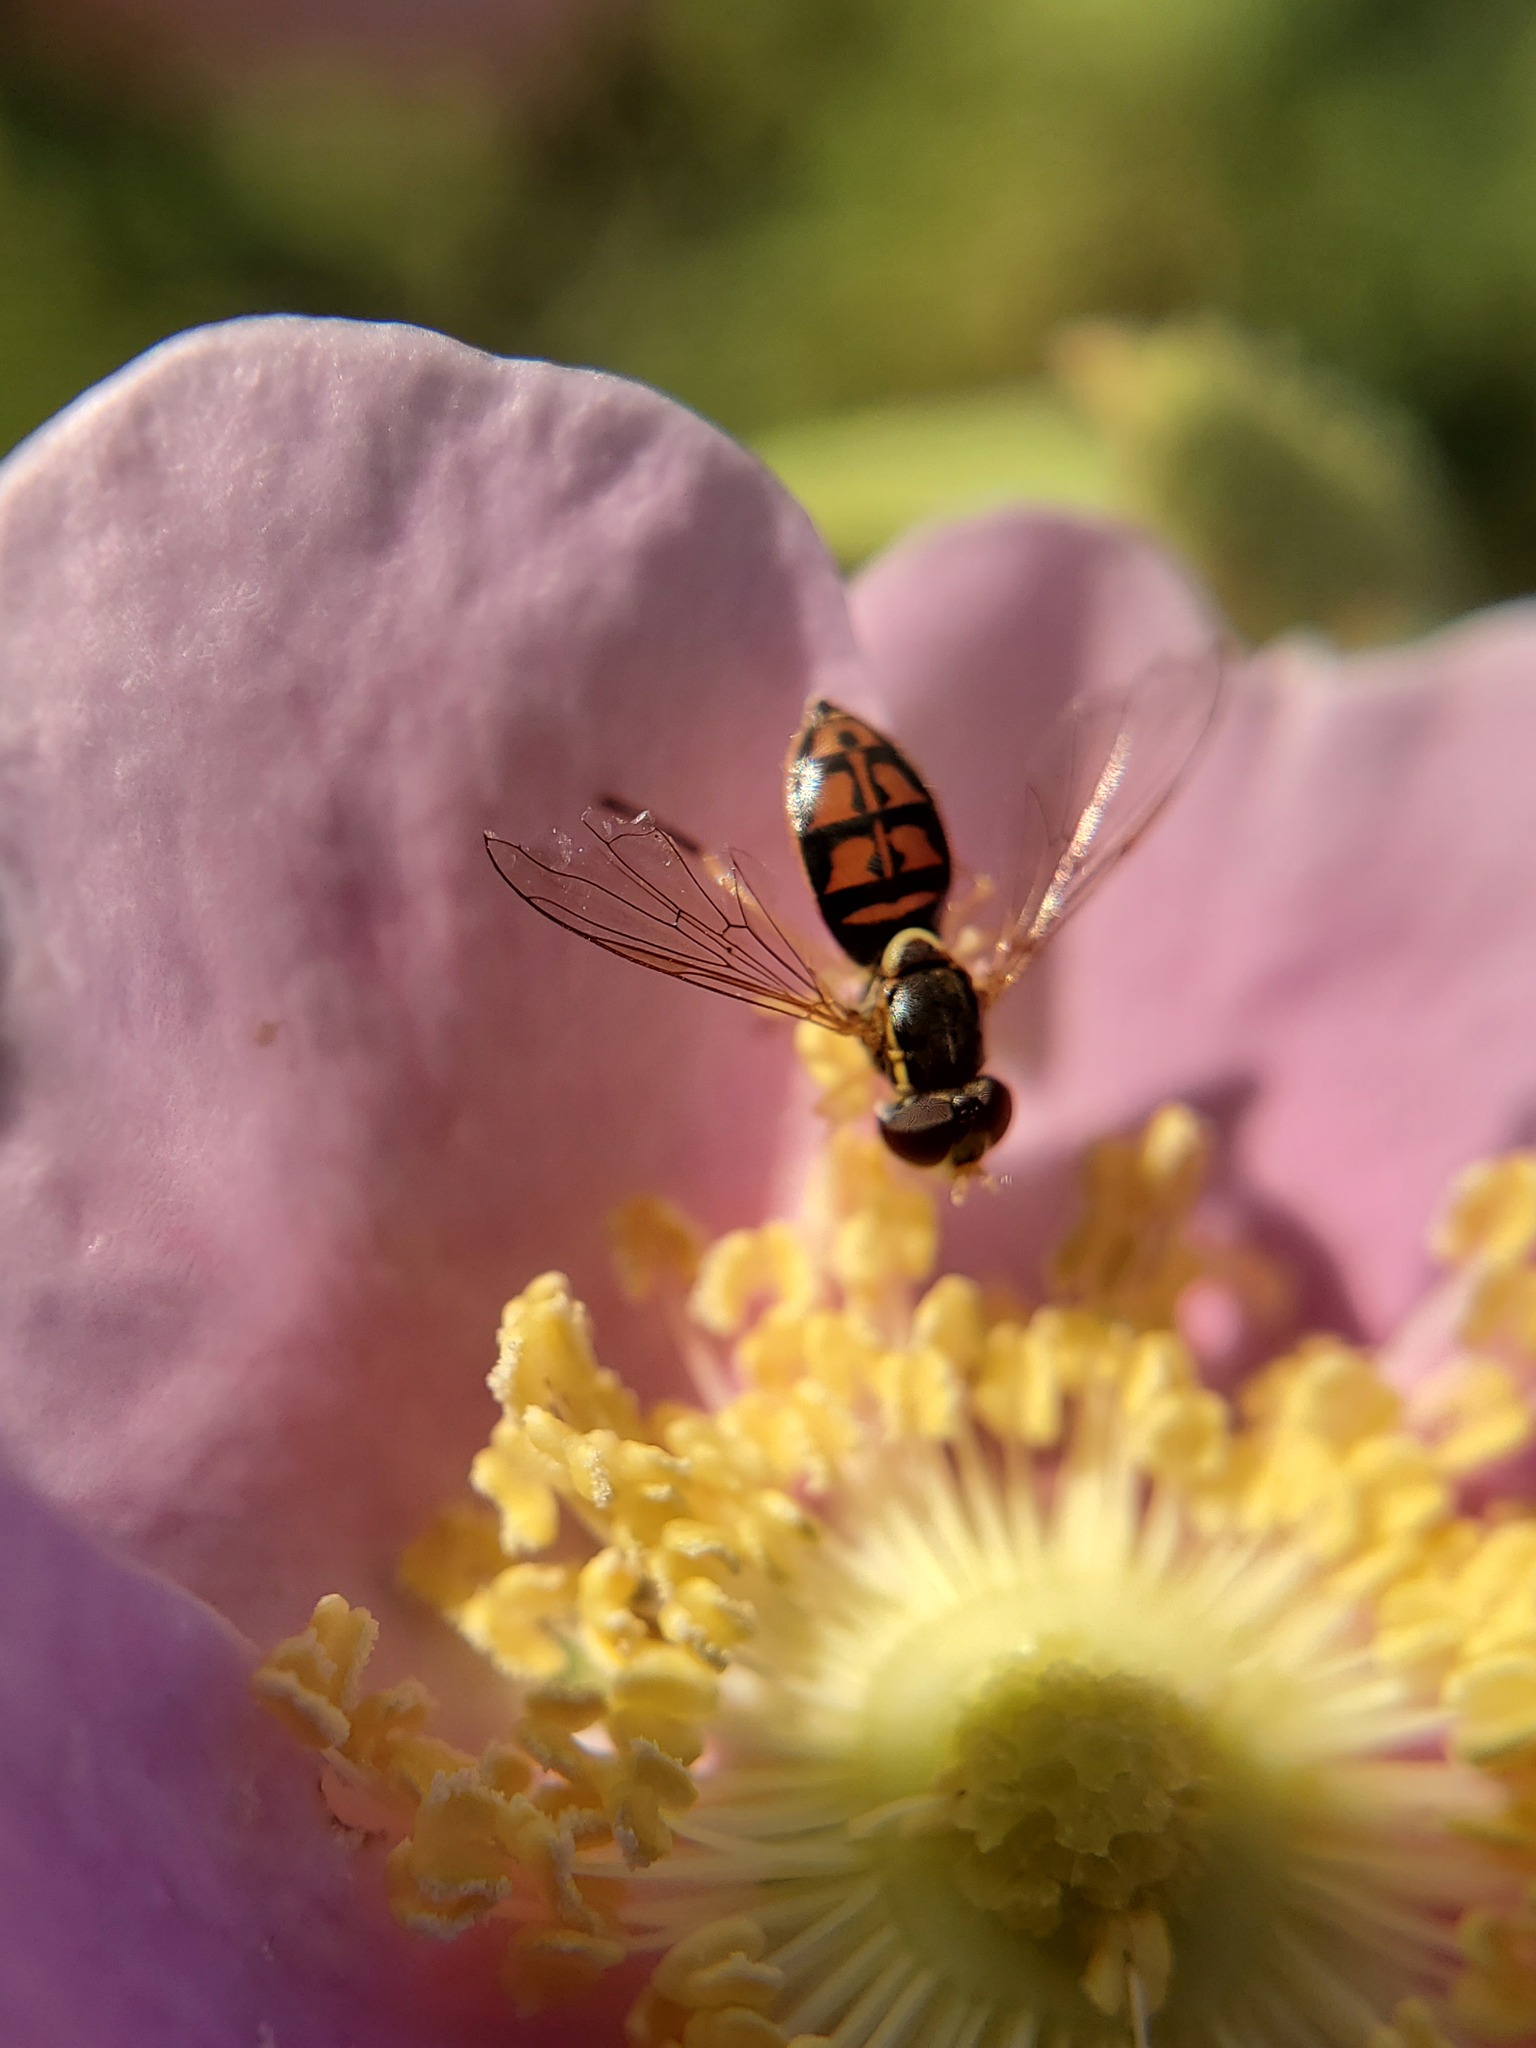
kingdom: Animalia
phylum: Arthropoda
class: Insecta
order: Diptera
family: Syrphidae
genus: Toxomerus
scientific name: Toxomerus marginatus
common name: Syrphid fly
